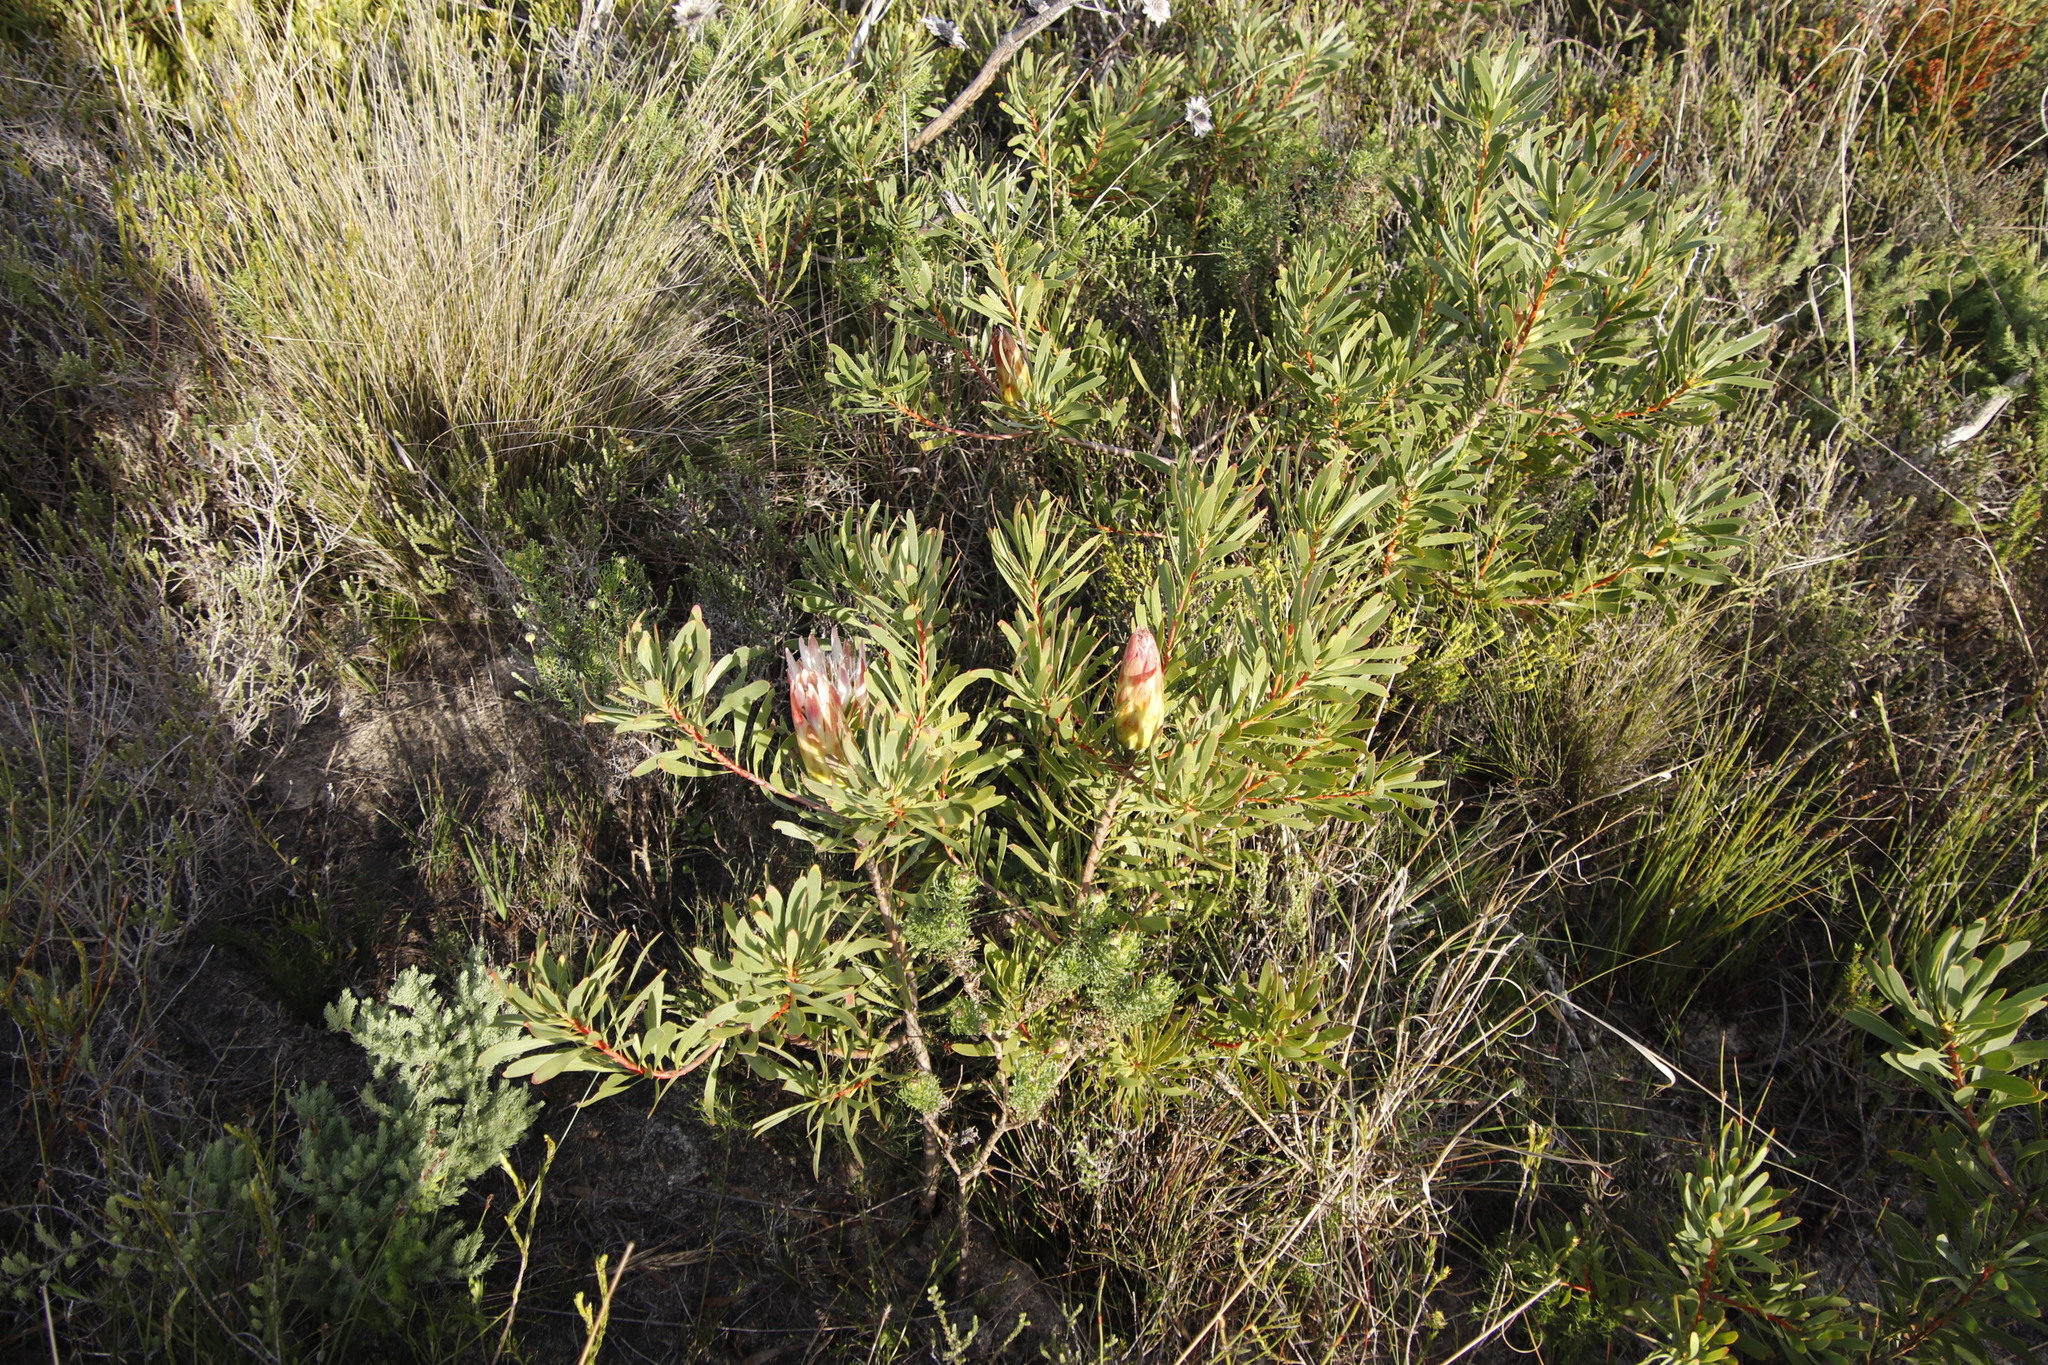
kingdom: Plantae
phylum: Tracheophyta
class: Magnoliopsida
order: Proteales
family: Proteaceae
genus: Protea
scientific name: Protea repens
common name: Sugarbush
